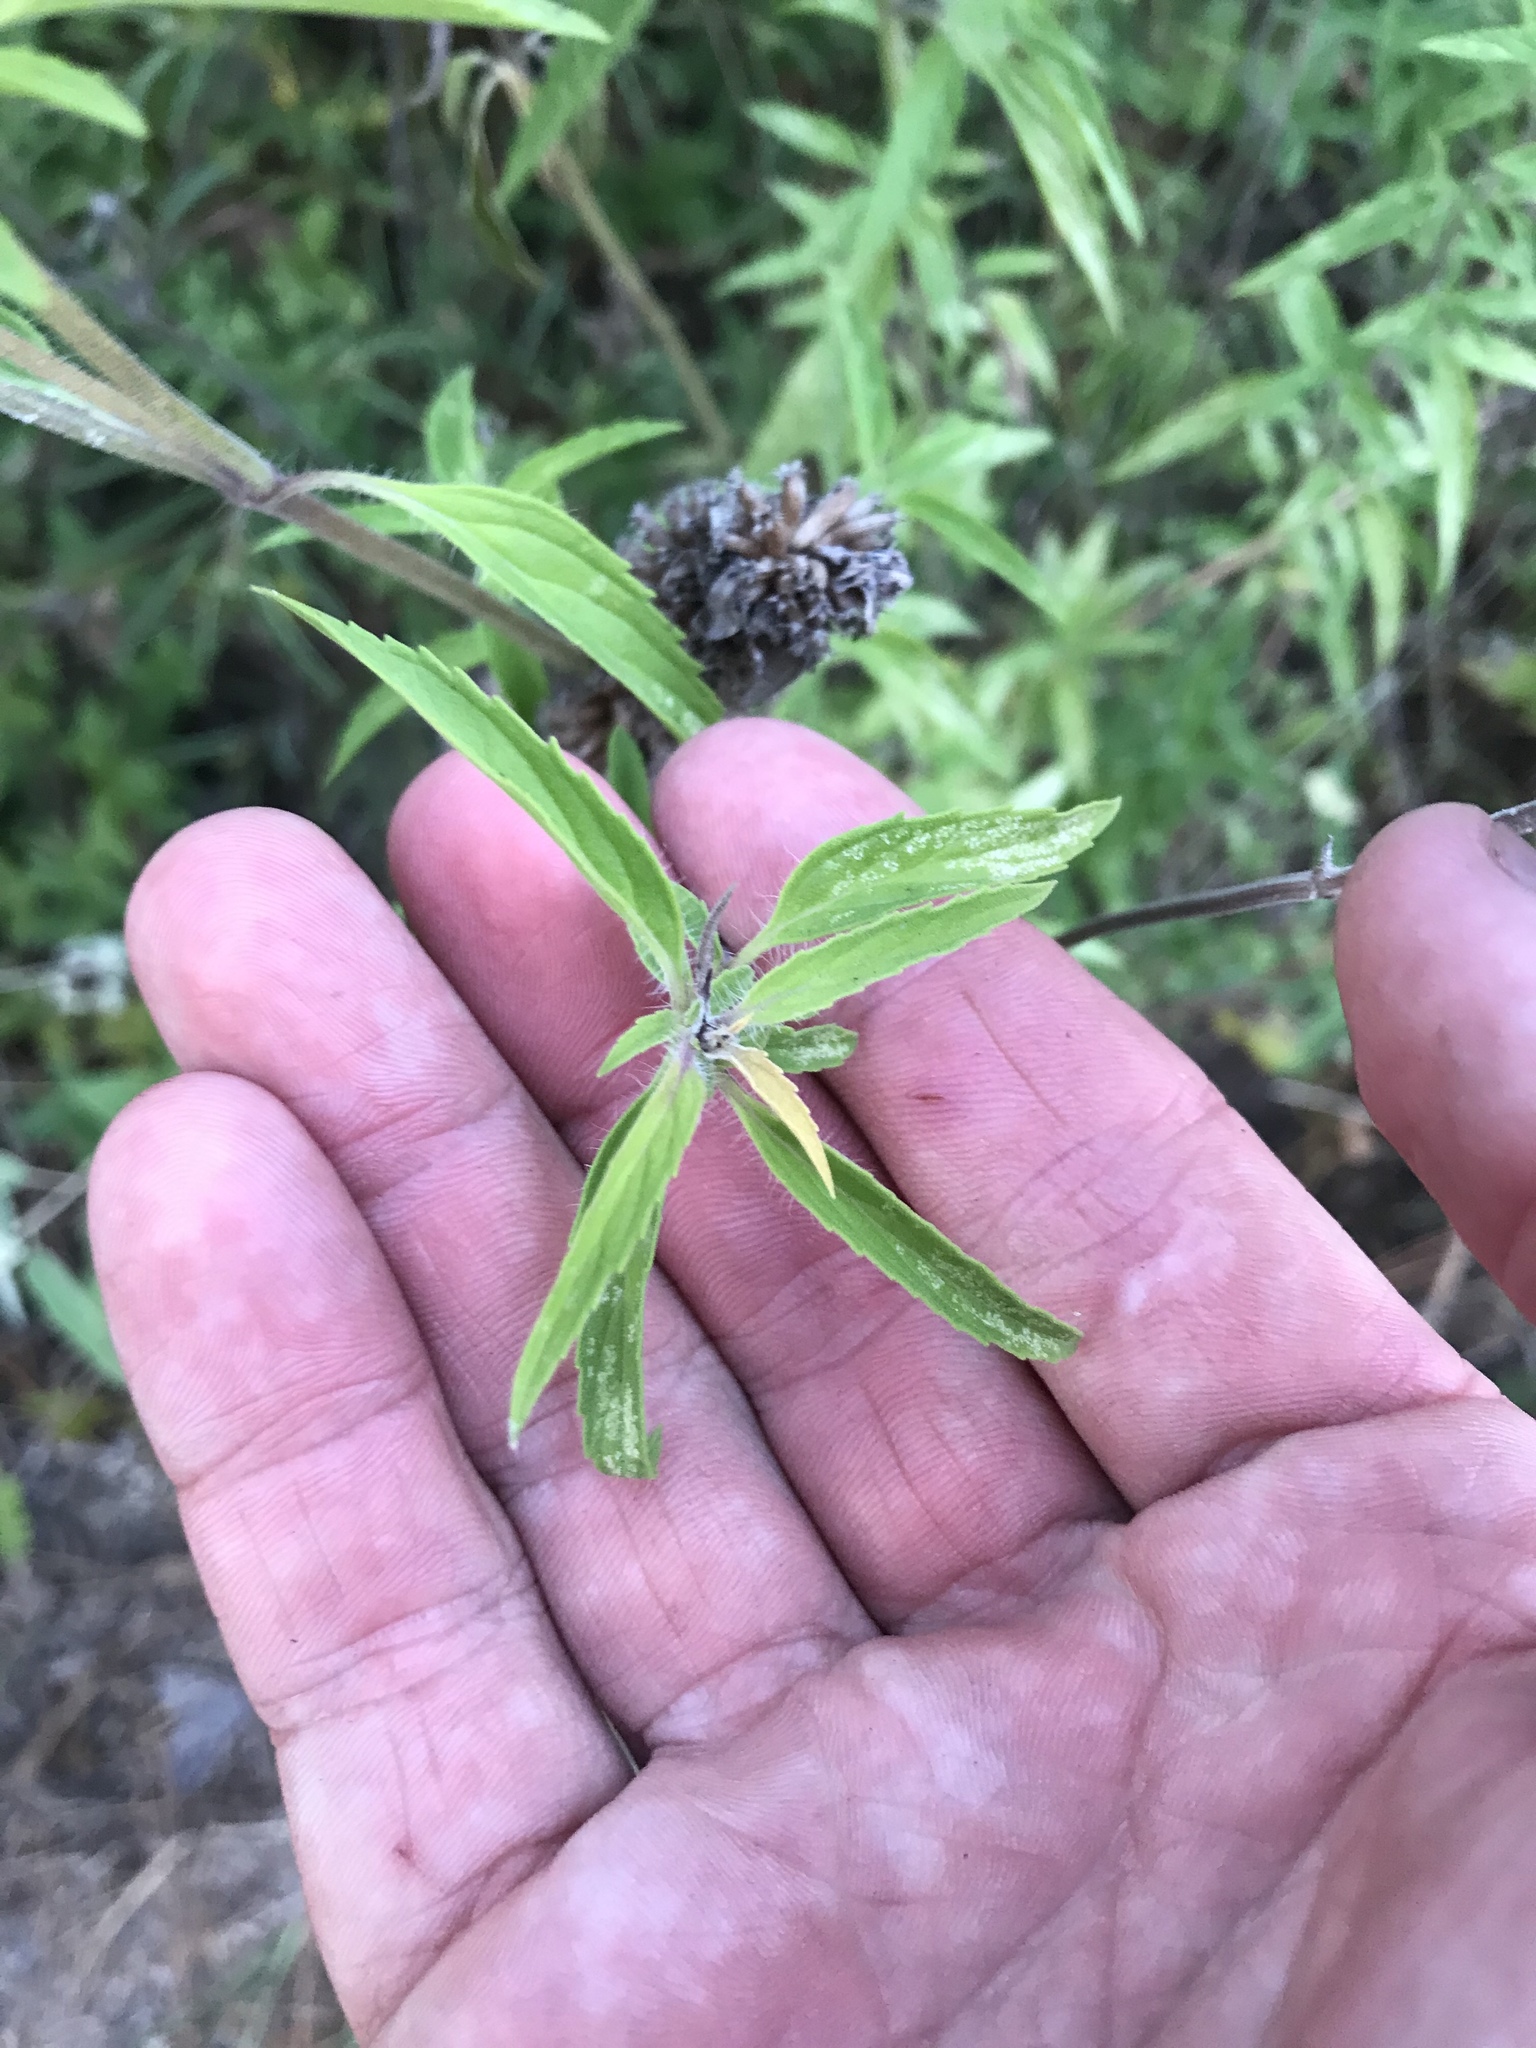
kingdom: Plantae
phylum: Tracheophyta
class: Magnoliopsida
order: Lamiales
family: Lamiaceae
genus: Monarda
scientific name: Monarda punctata
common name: Dotted monarda
